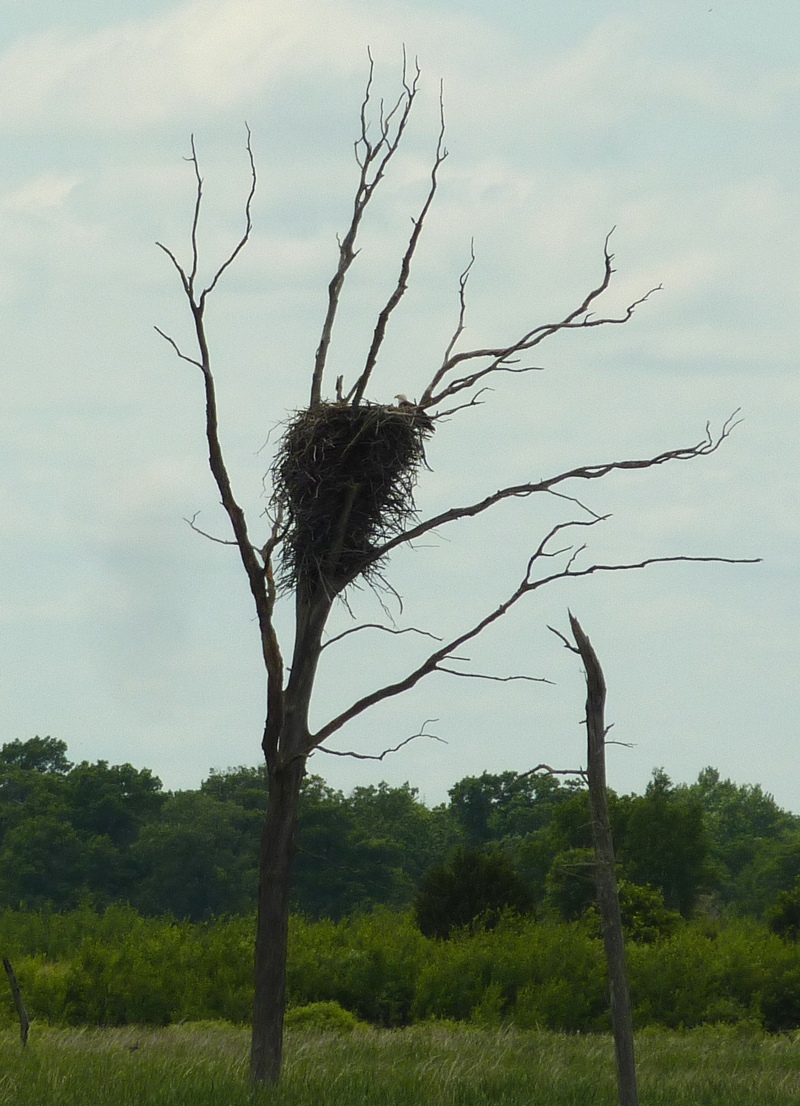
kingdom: Animalia
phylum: Chordata
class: Aves
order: Accipitriformes
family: Accipitridae
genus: Haliaeetus
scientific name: Haliaeetus leucocephalus
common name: Bald eagle
